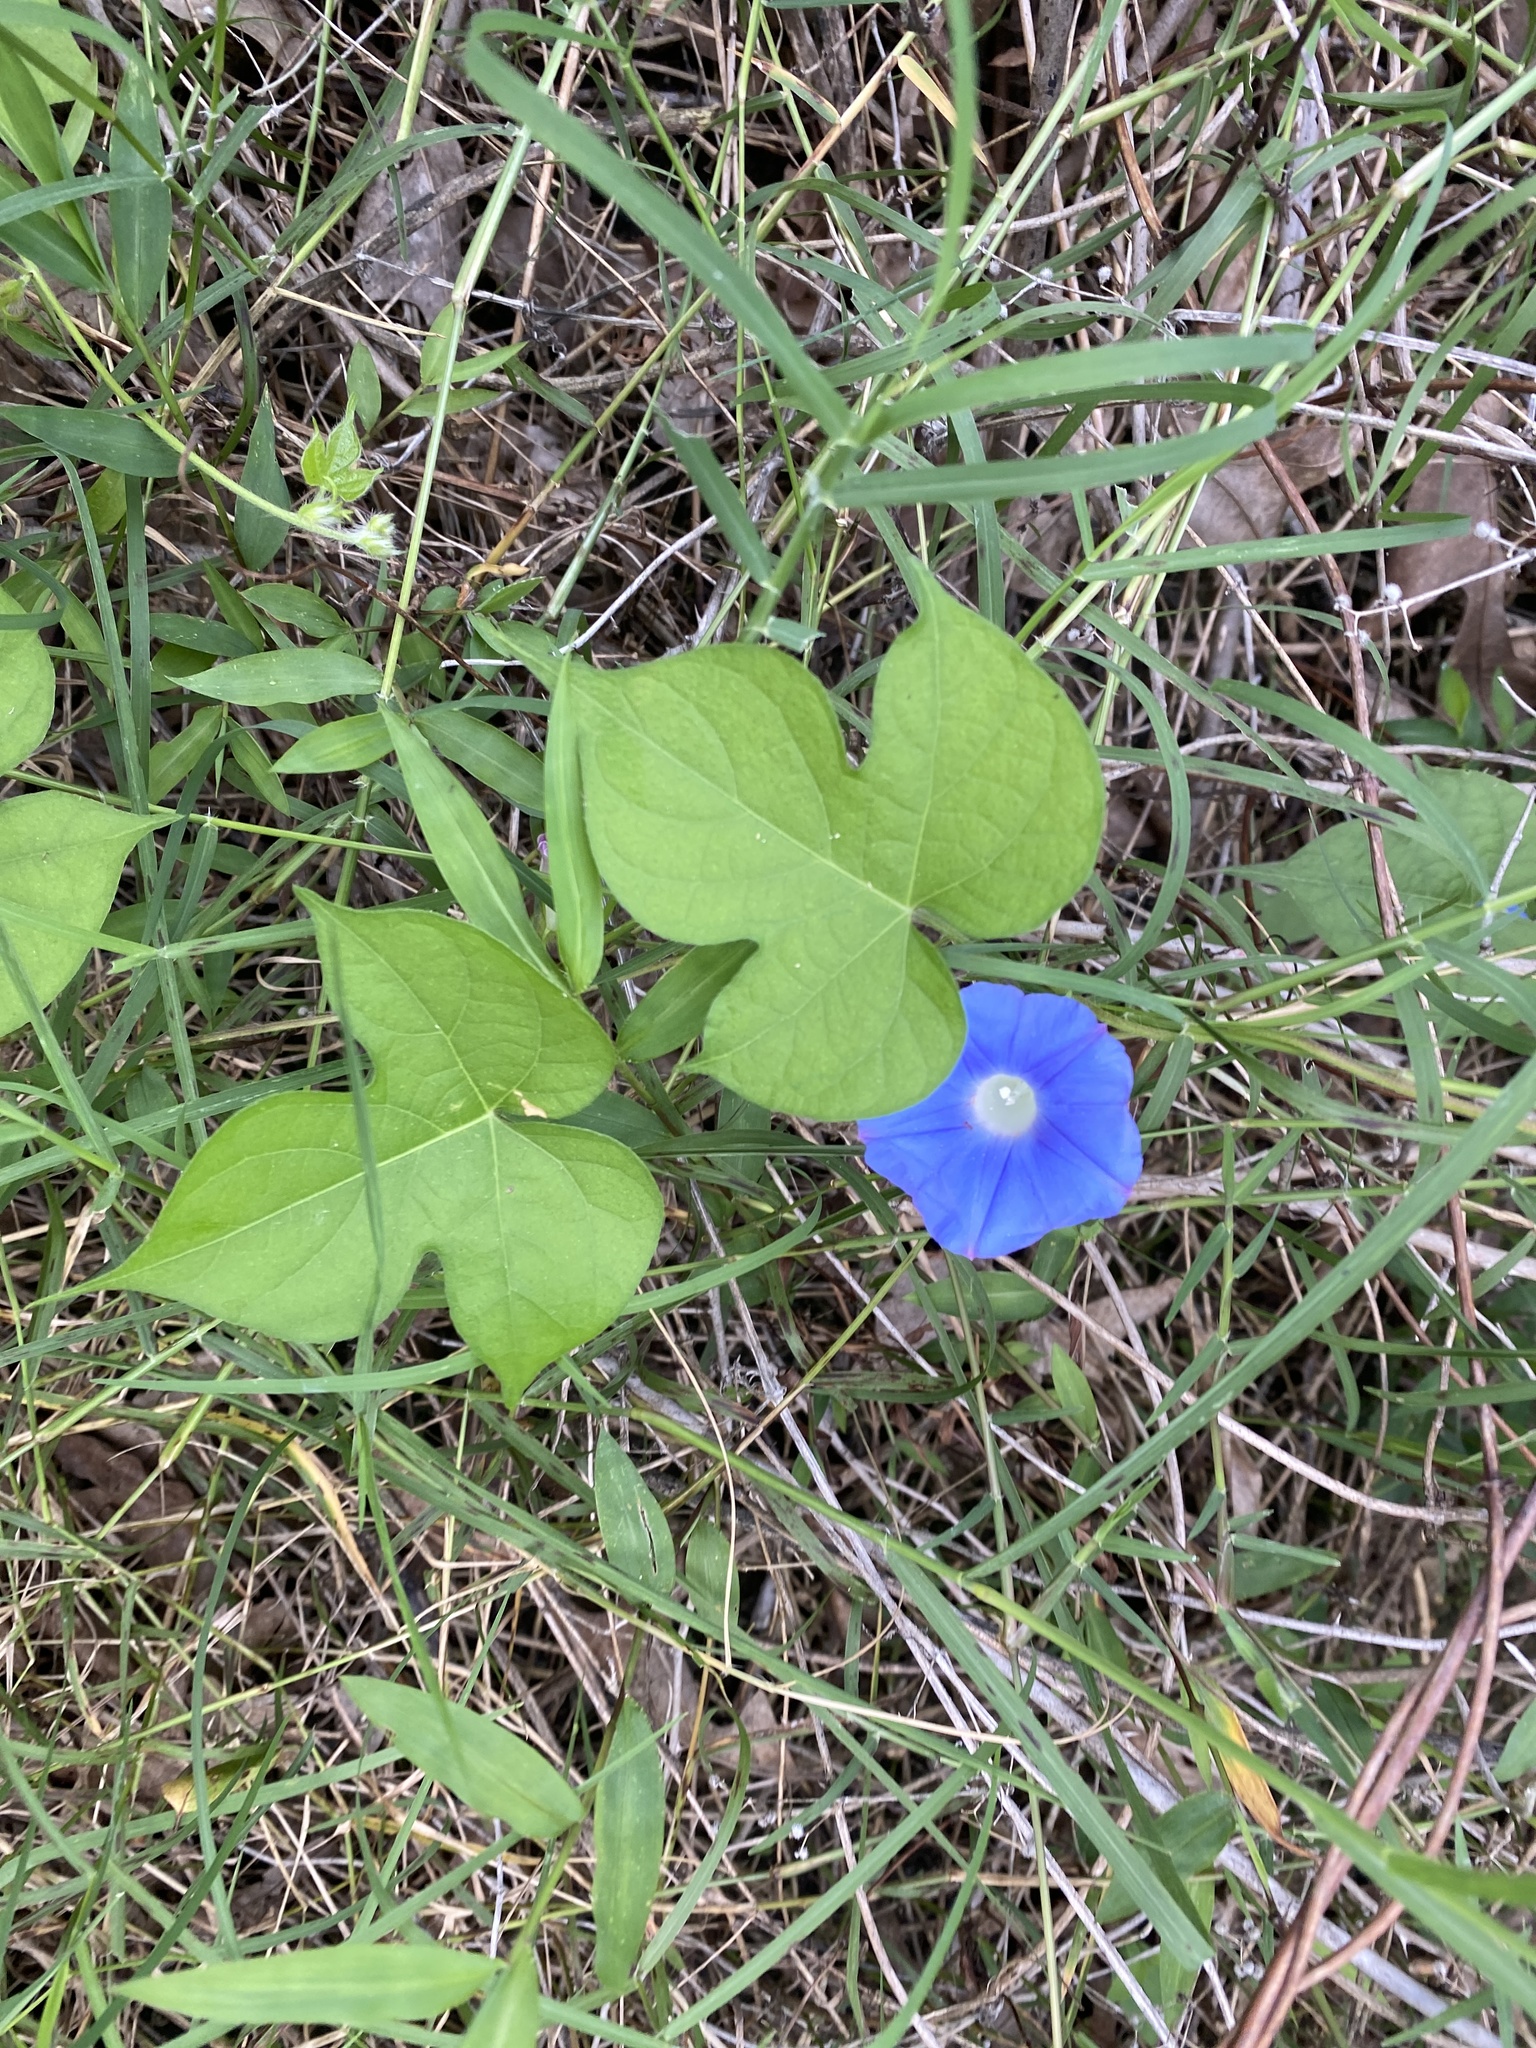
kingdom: Plantae
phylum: Tracheophyta
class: Magnoliopsida
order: Solanales
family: Convolvulaceae
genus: Ipomoea
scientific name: Ipomoea hederacea
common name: Ivy-leaved morning-glory
